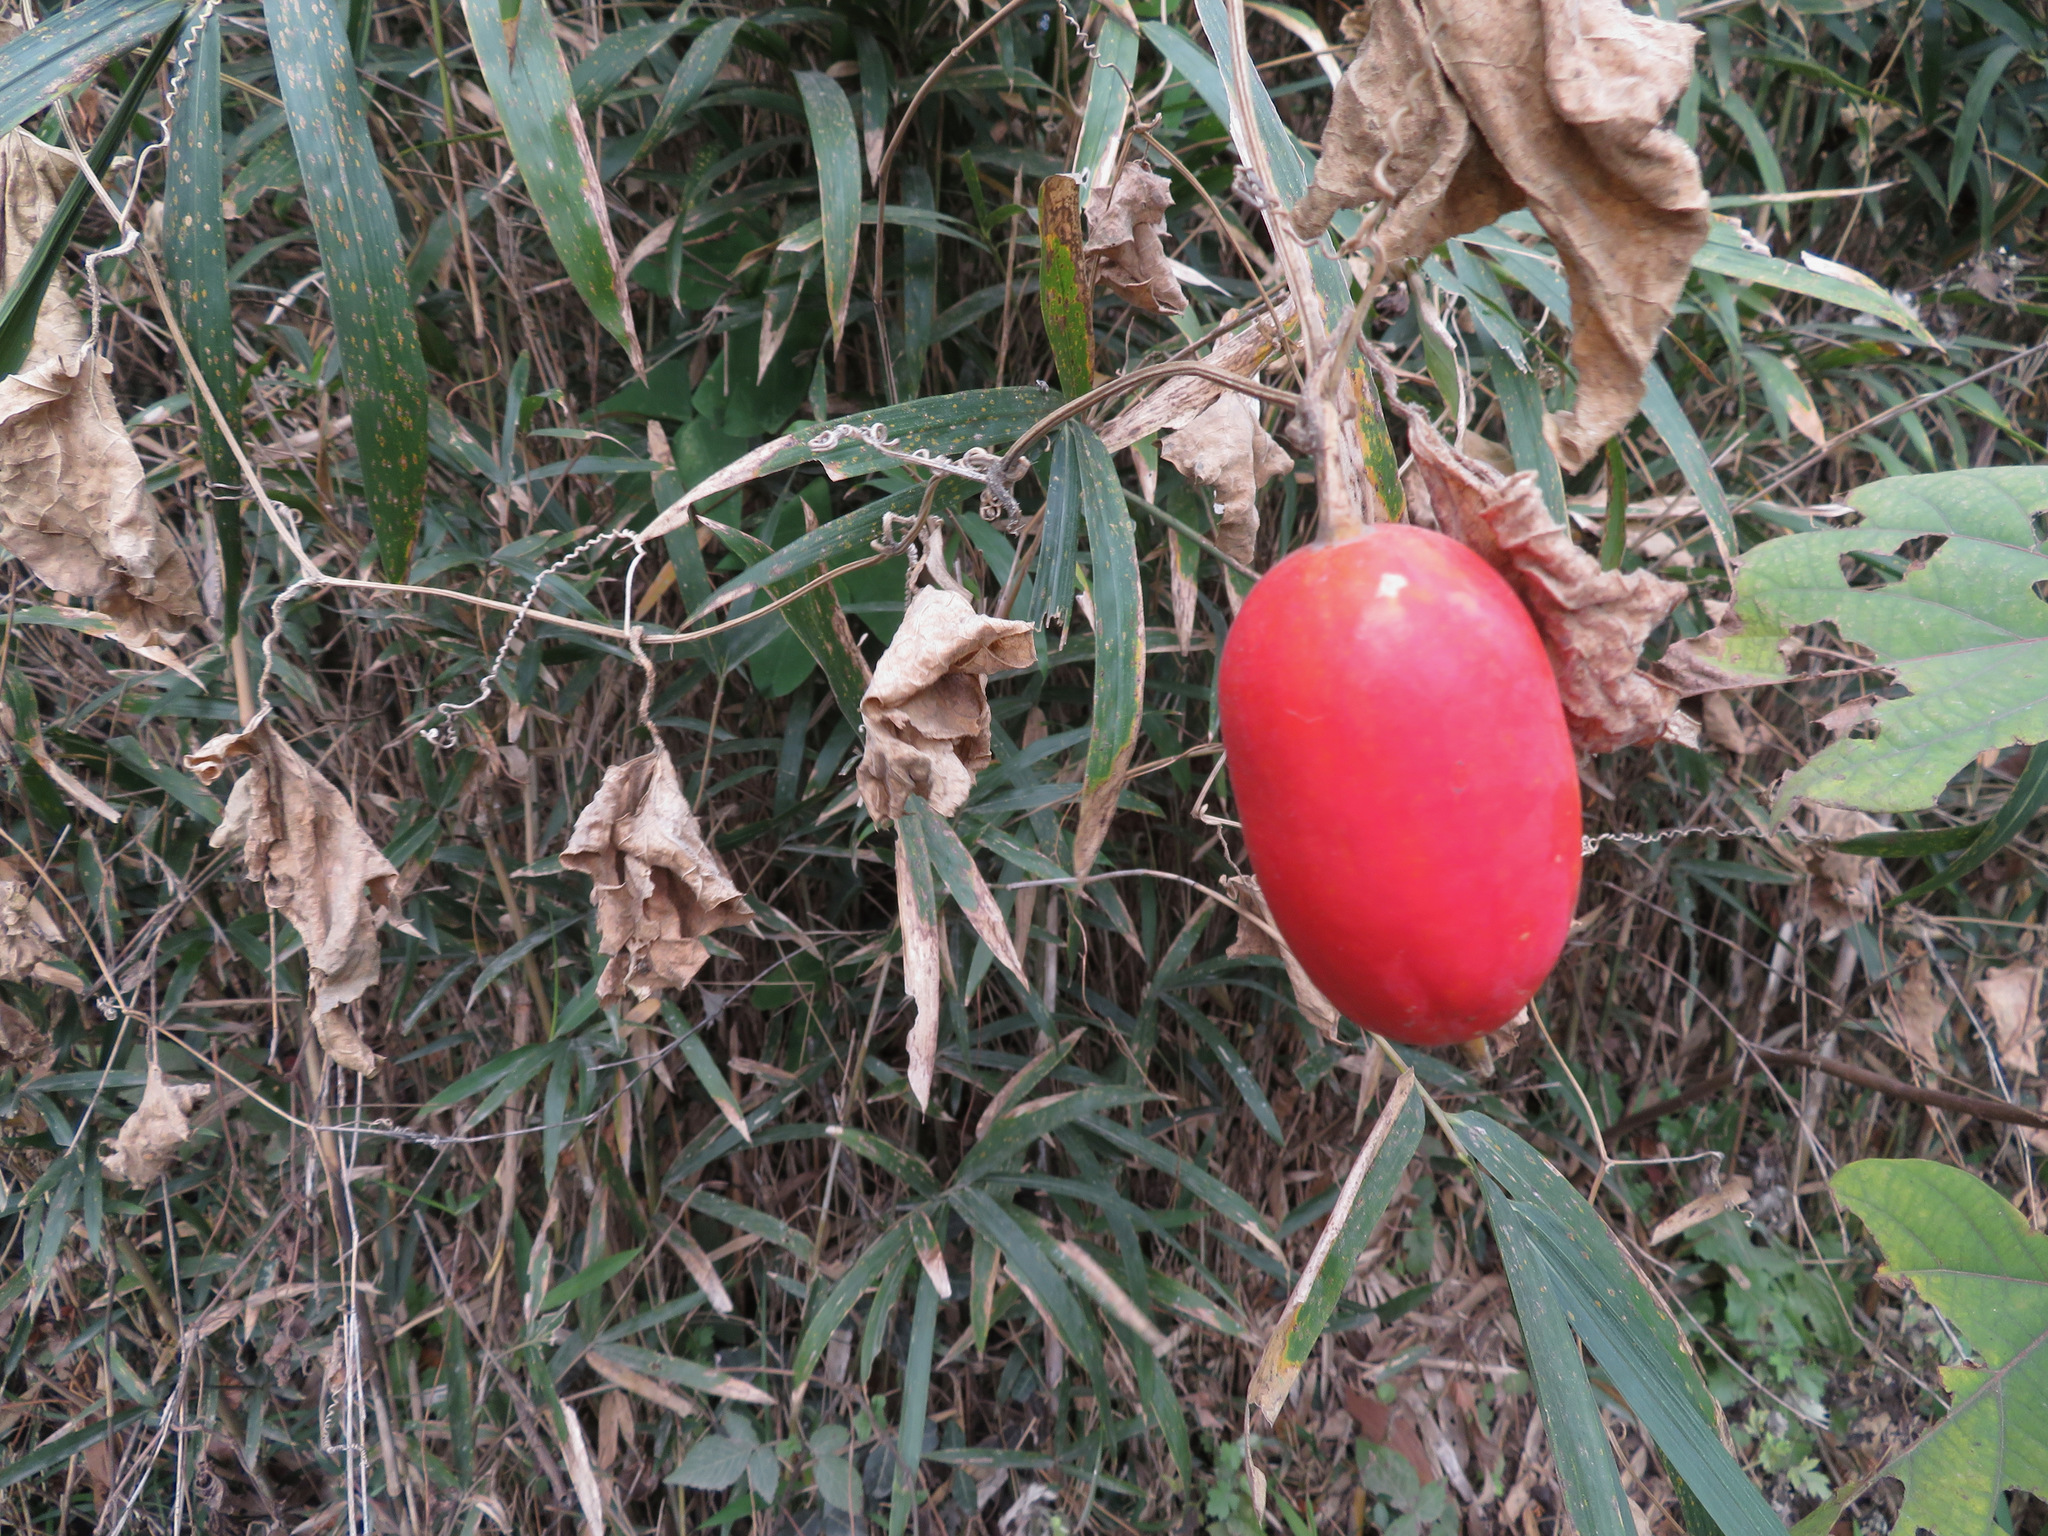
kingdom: Plantae
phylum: Tracheophyta
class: Magnoliopsida
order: Cucurbitales
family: Cucurbitaceae
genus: Trichosanthes
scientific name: Trichosanthes cucumeroides
